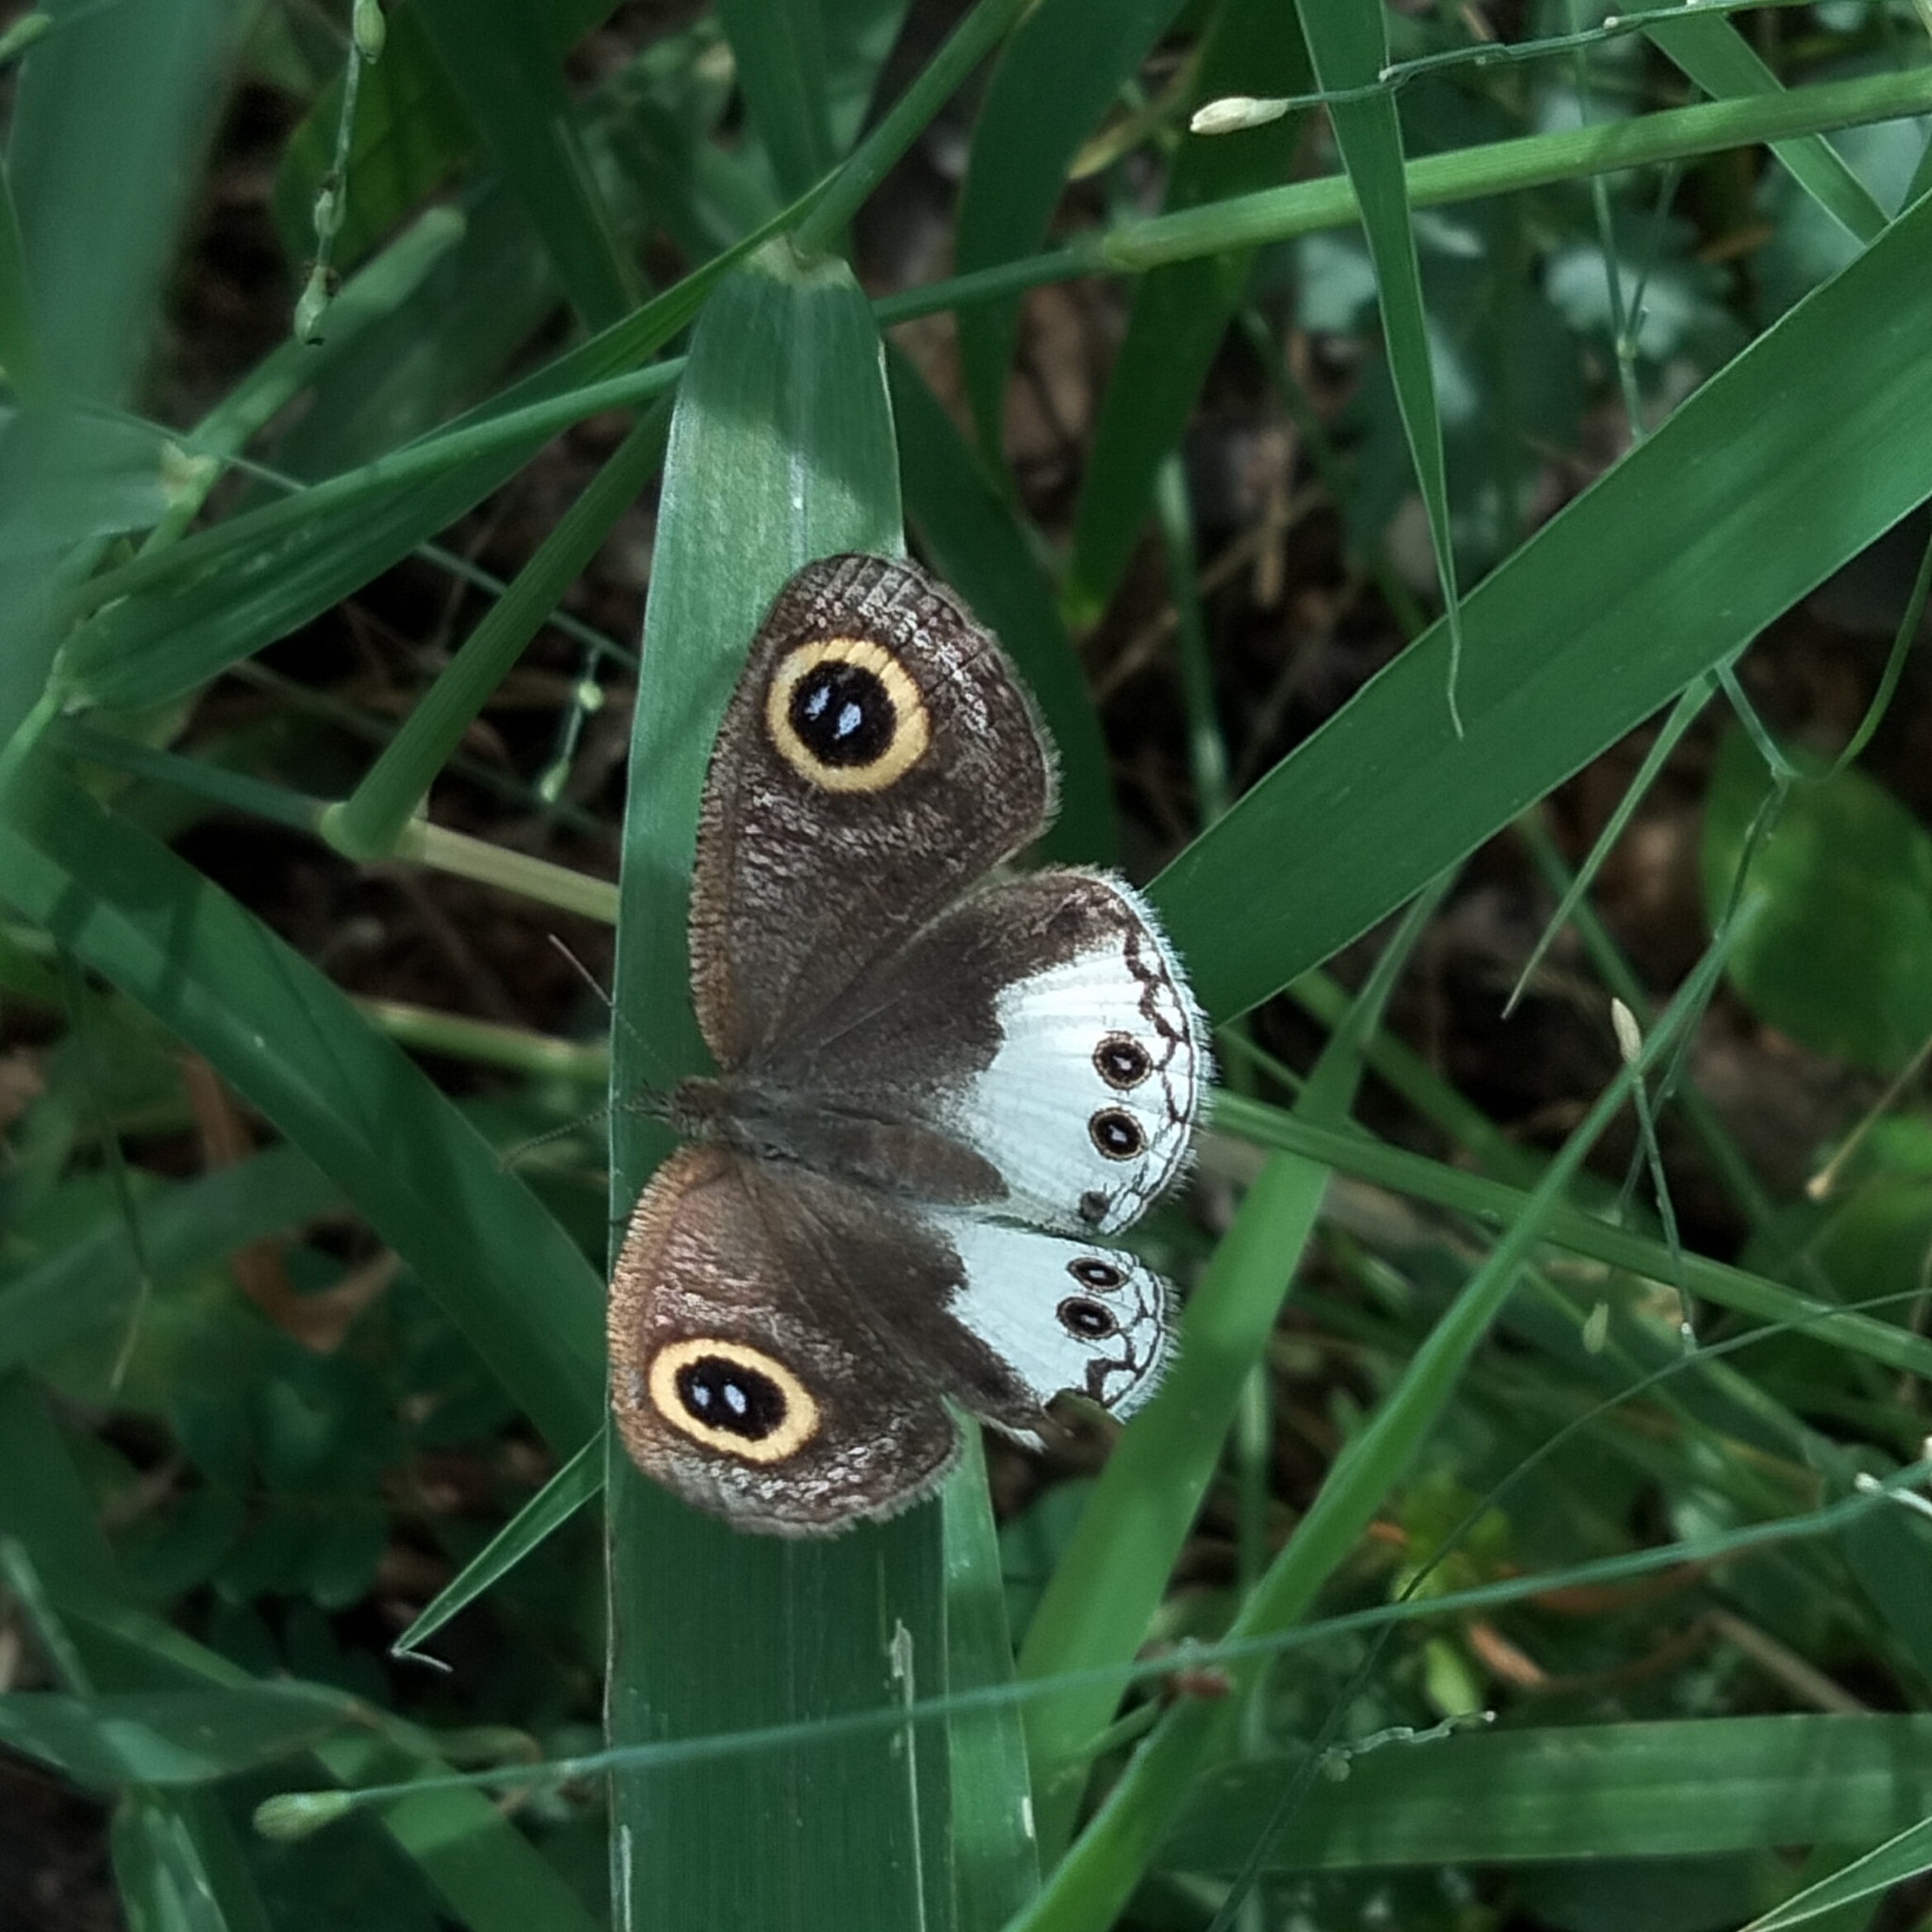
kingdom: Animalia
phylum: Arthropoda
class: Insecta
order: Lepidoptera
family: Nymphalidae
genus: Ypthima
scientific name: Ypthima ceylonica
